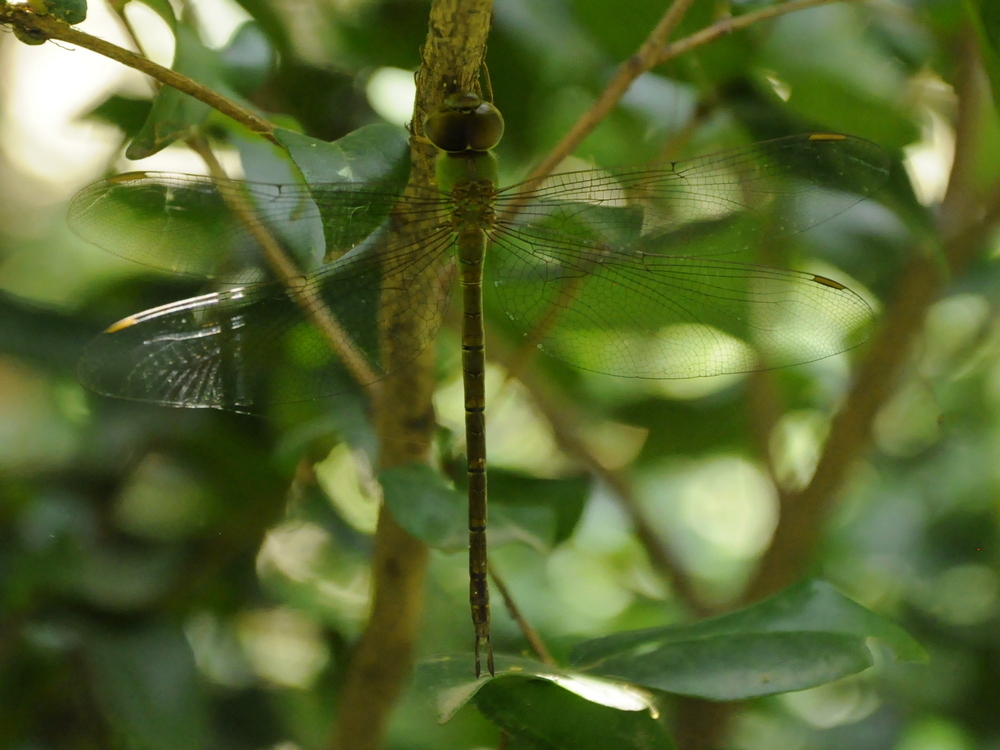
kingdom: Animalia
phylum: Arthropoda
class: Insecta
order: Odonata
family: Aeshnidae
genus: Gynacantha
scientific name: Gynacantha bayadera
